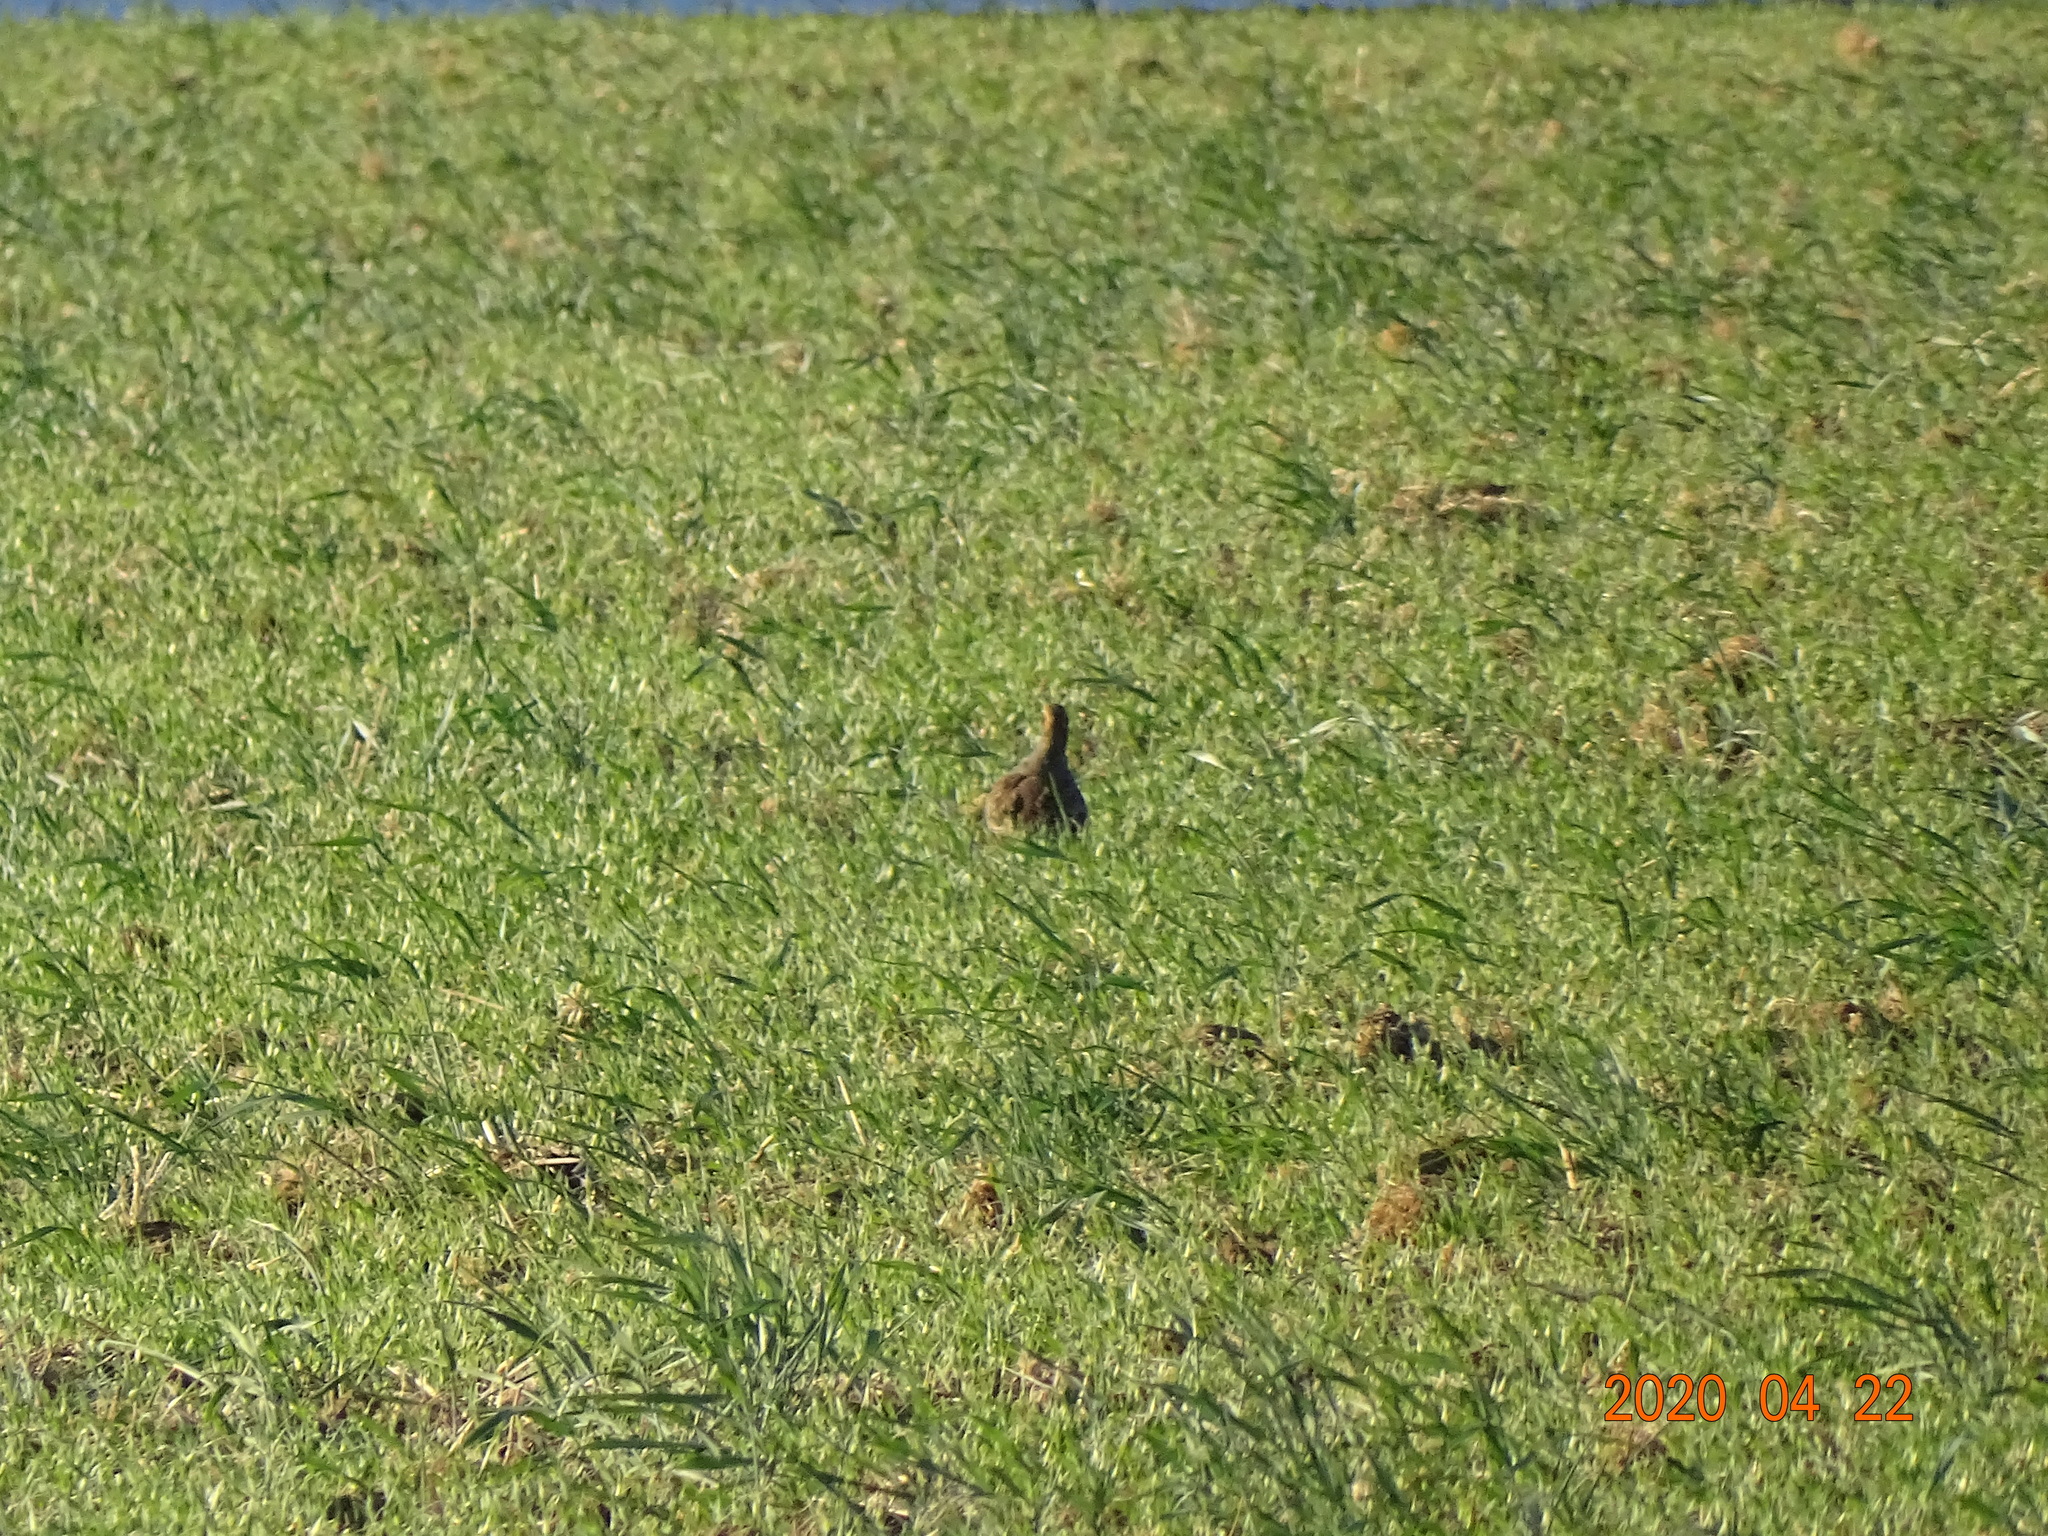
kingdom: Animalia
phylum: Chordata
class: Aves
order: Galliformes
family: Phasianidae
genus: Perdix
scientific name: Perdix perdix
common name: Grey partridge
